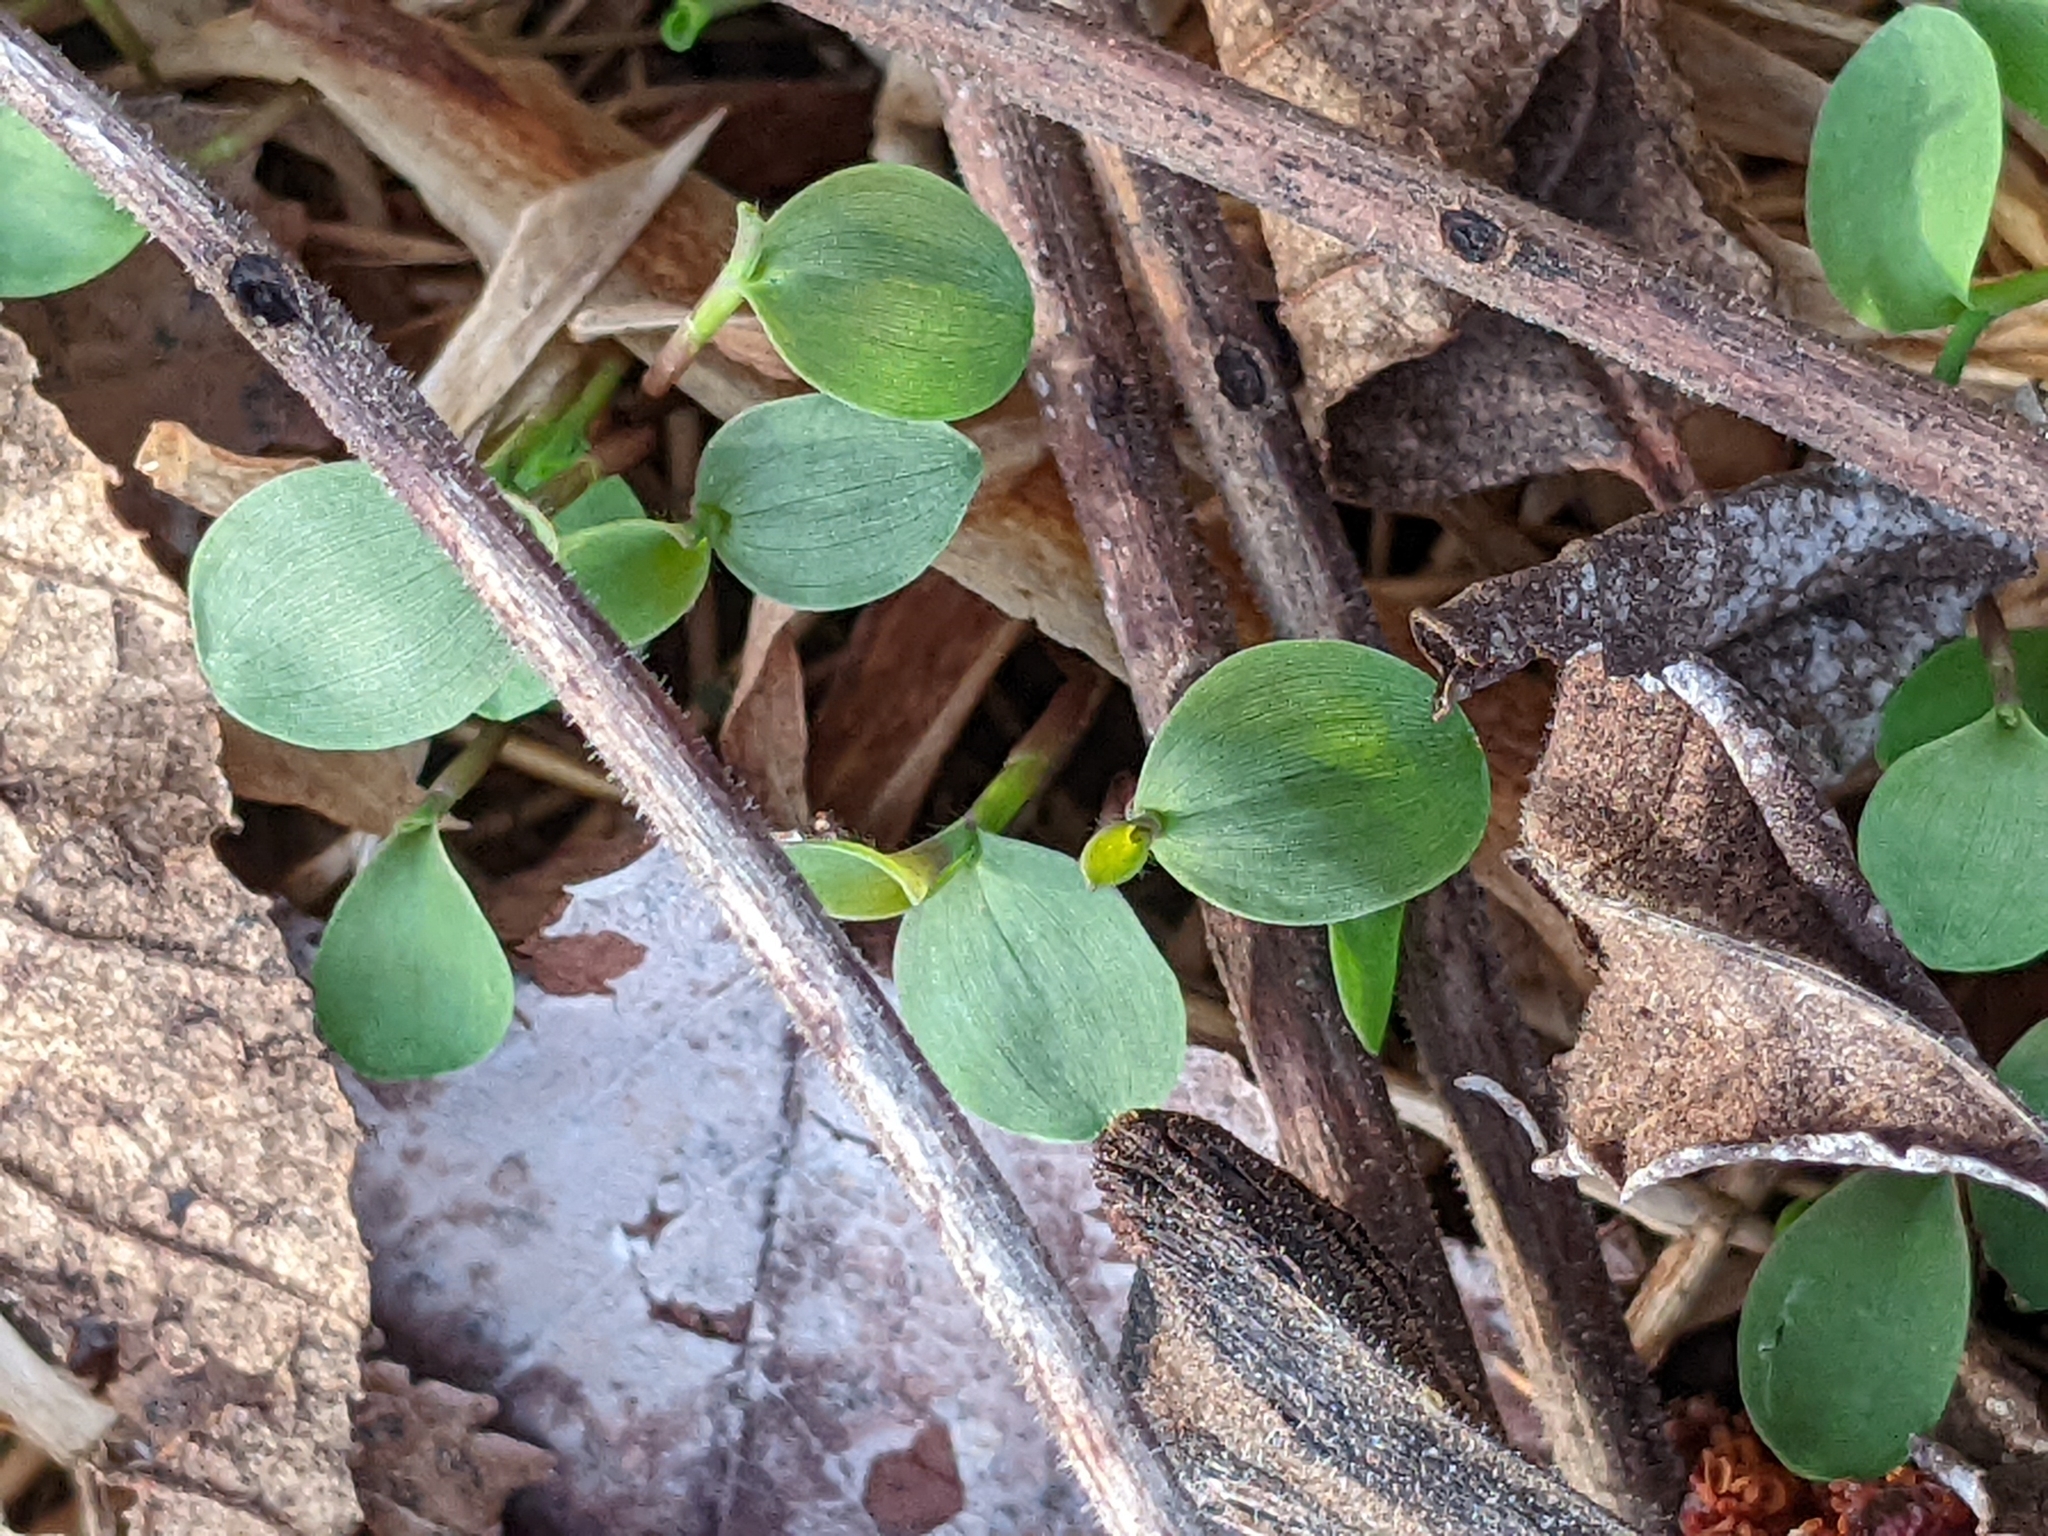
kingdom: Plantae
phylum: Tracheophyta
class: Liliopsida
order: Poales
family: Poaceae
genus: Microstegium
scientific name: Microstegium vimineum
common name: Japanese stiltgrass
